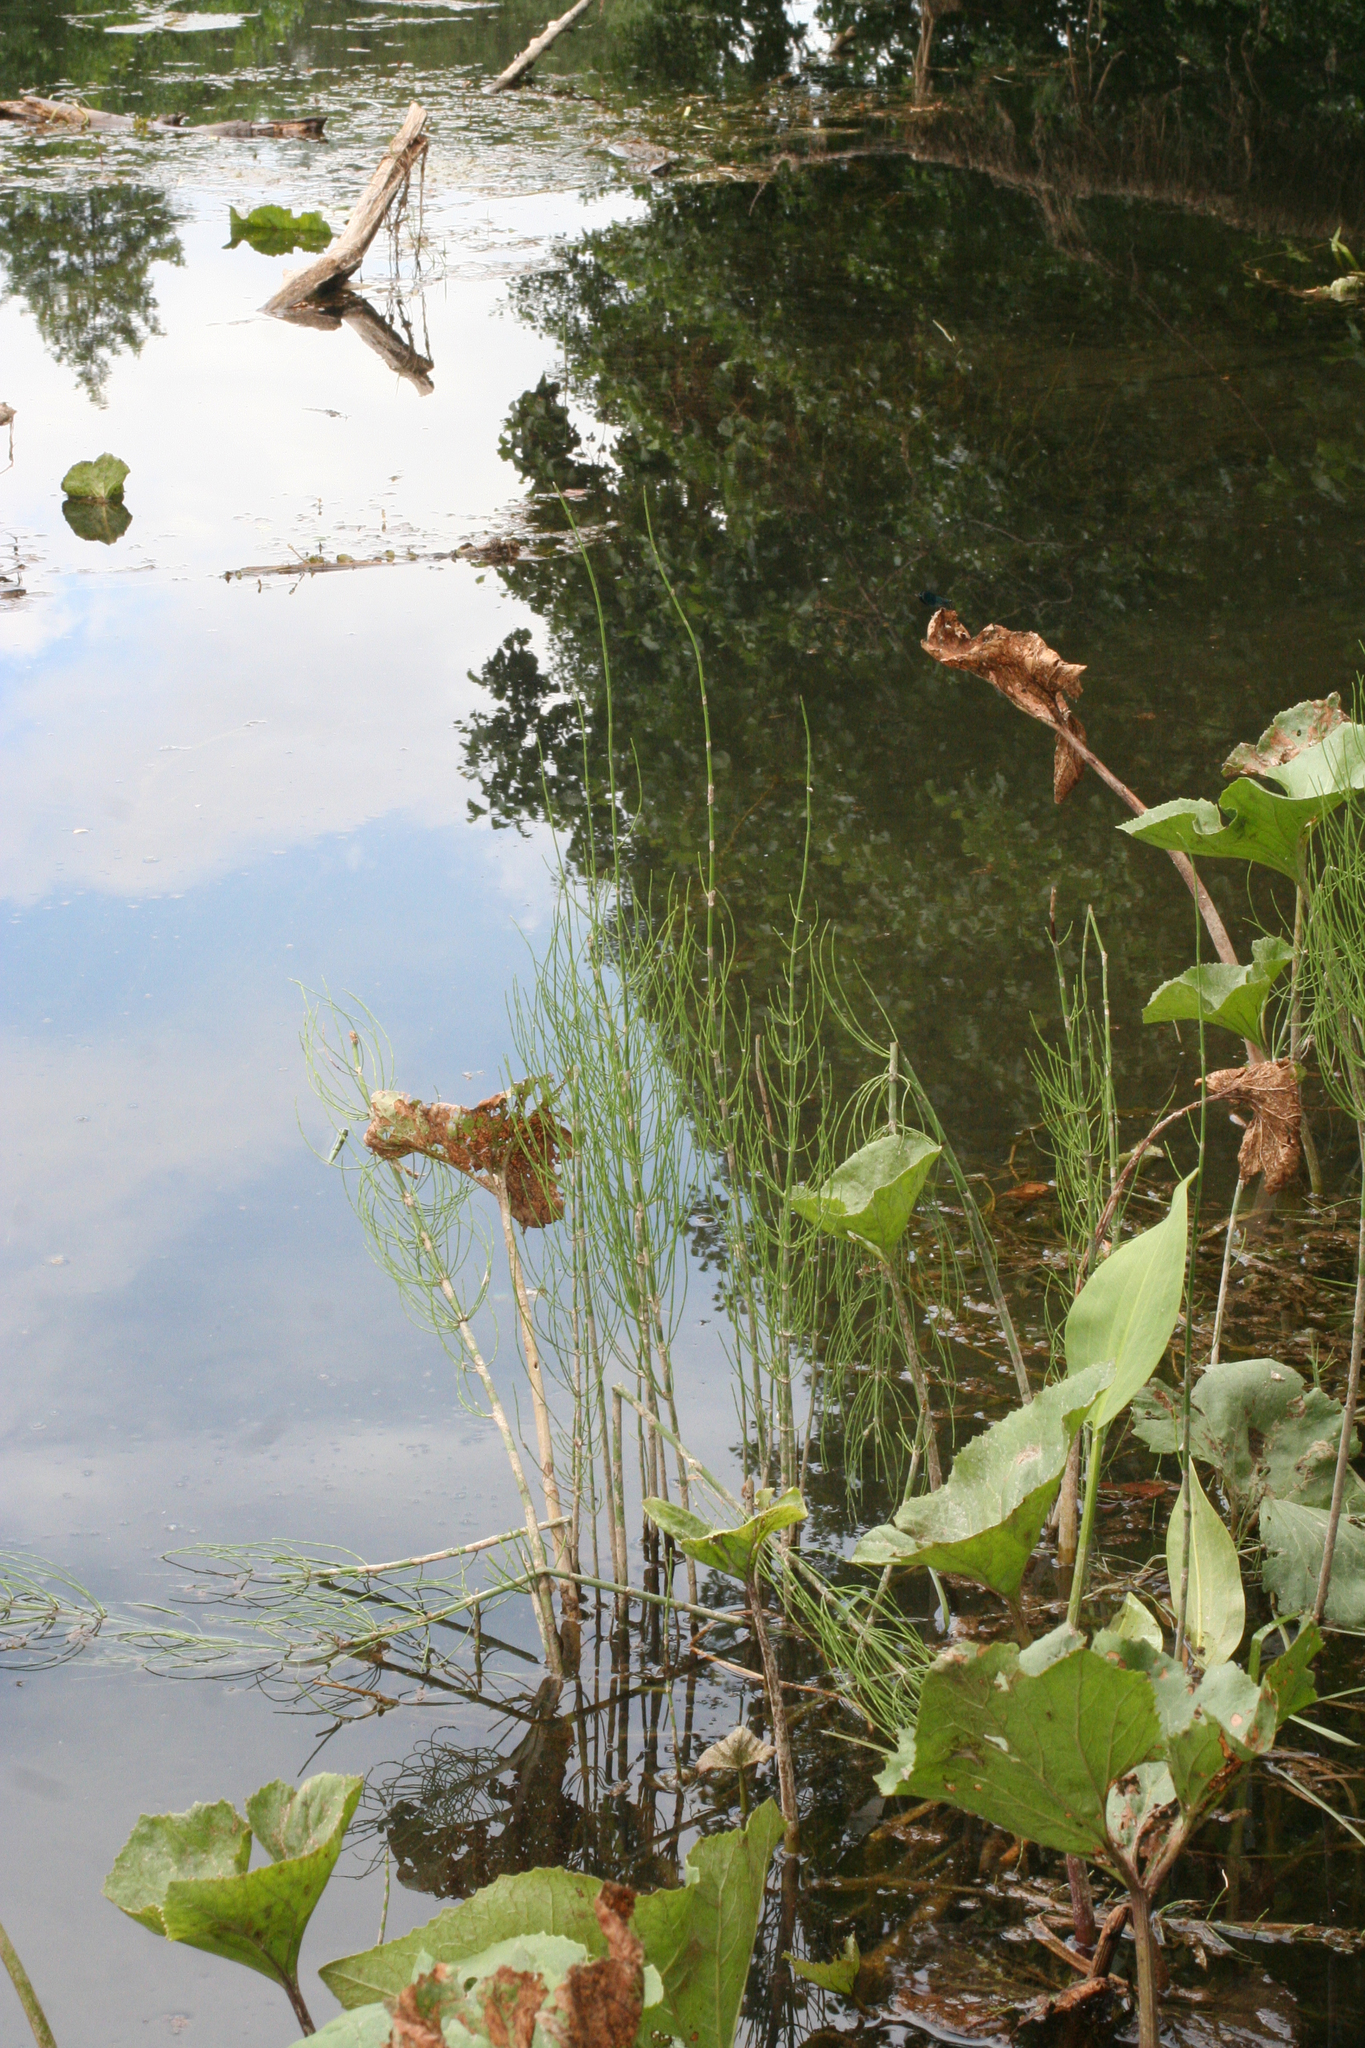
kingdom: Plantae
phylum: Tracheophyta
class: Polypodiopsida
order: Equisetales
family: Equisetaceae
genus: Equisetum
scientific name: Equisetum fluviatile
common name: Water horsetail
